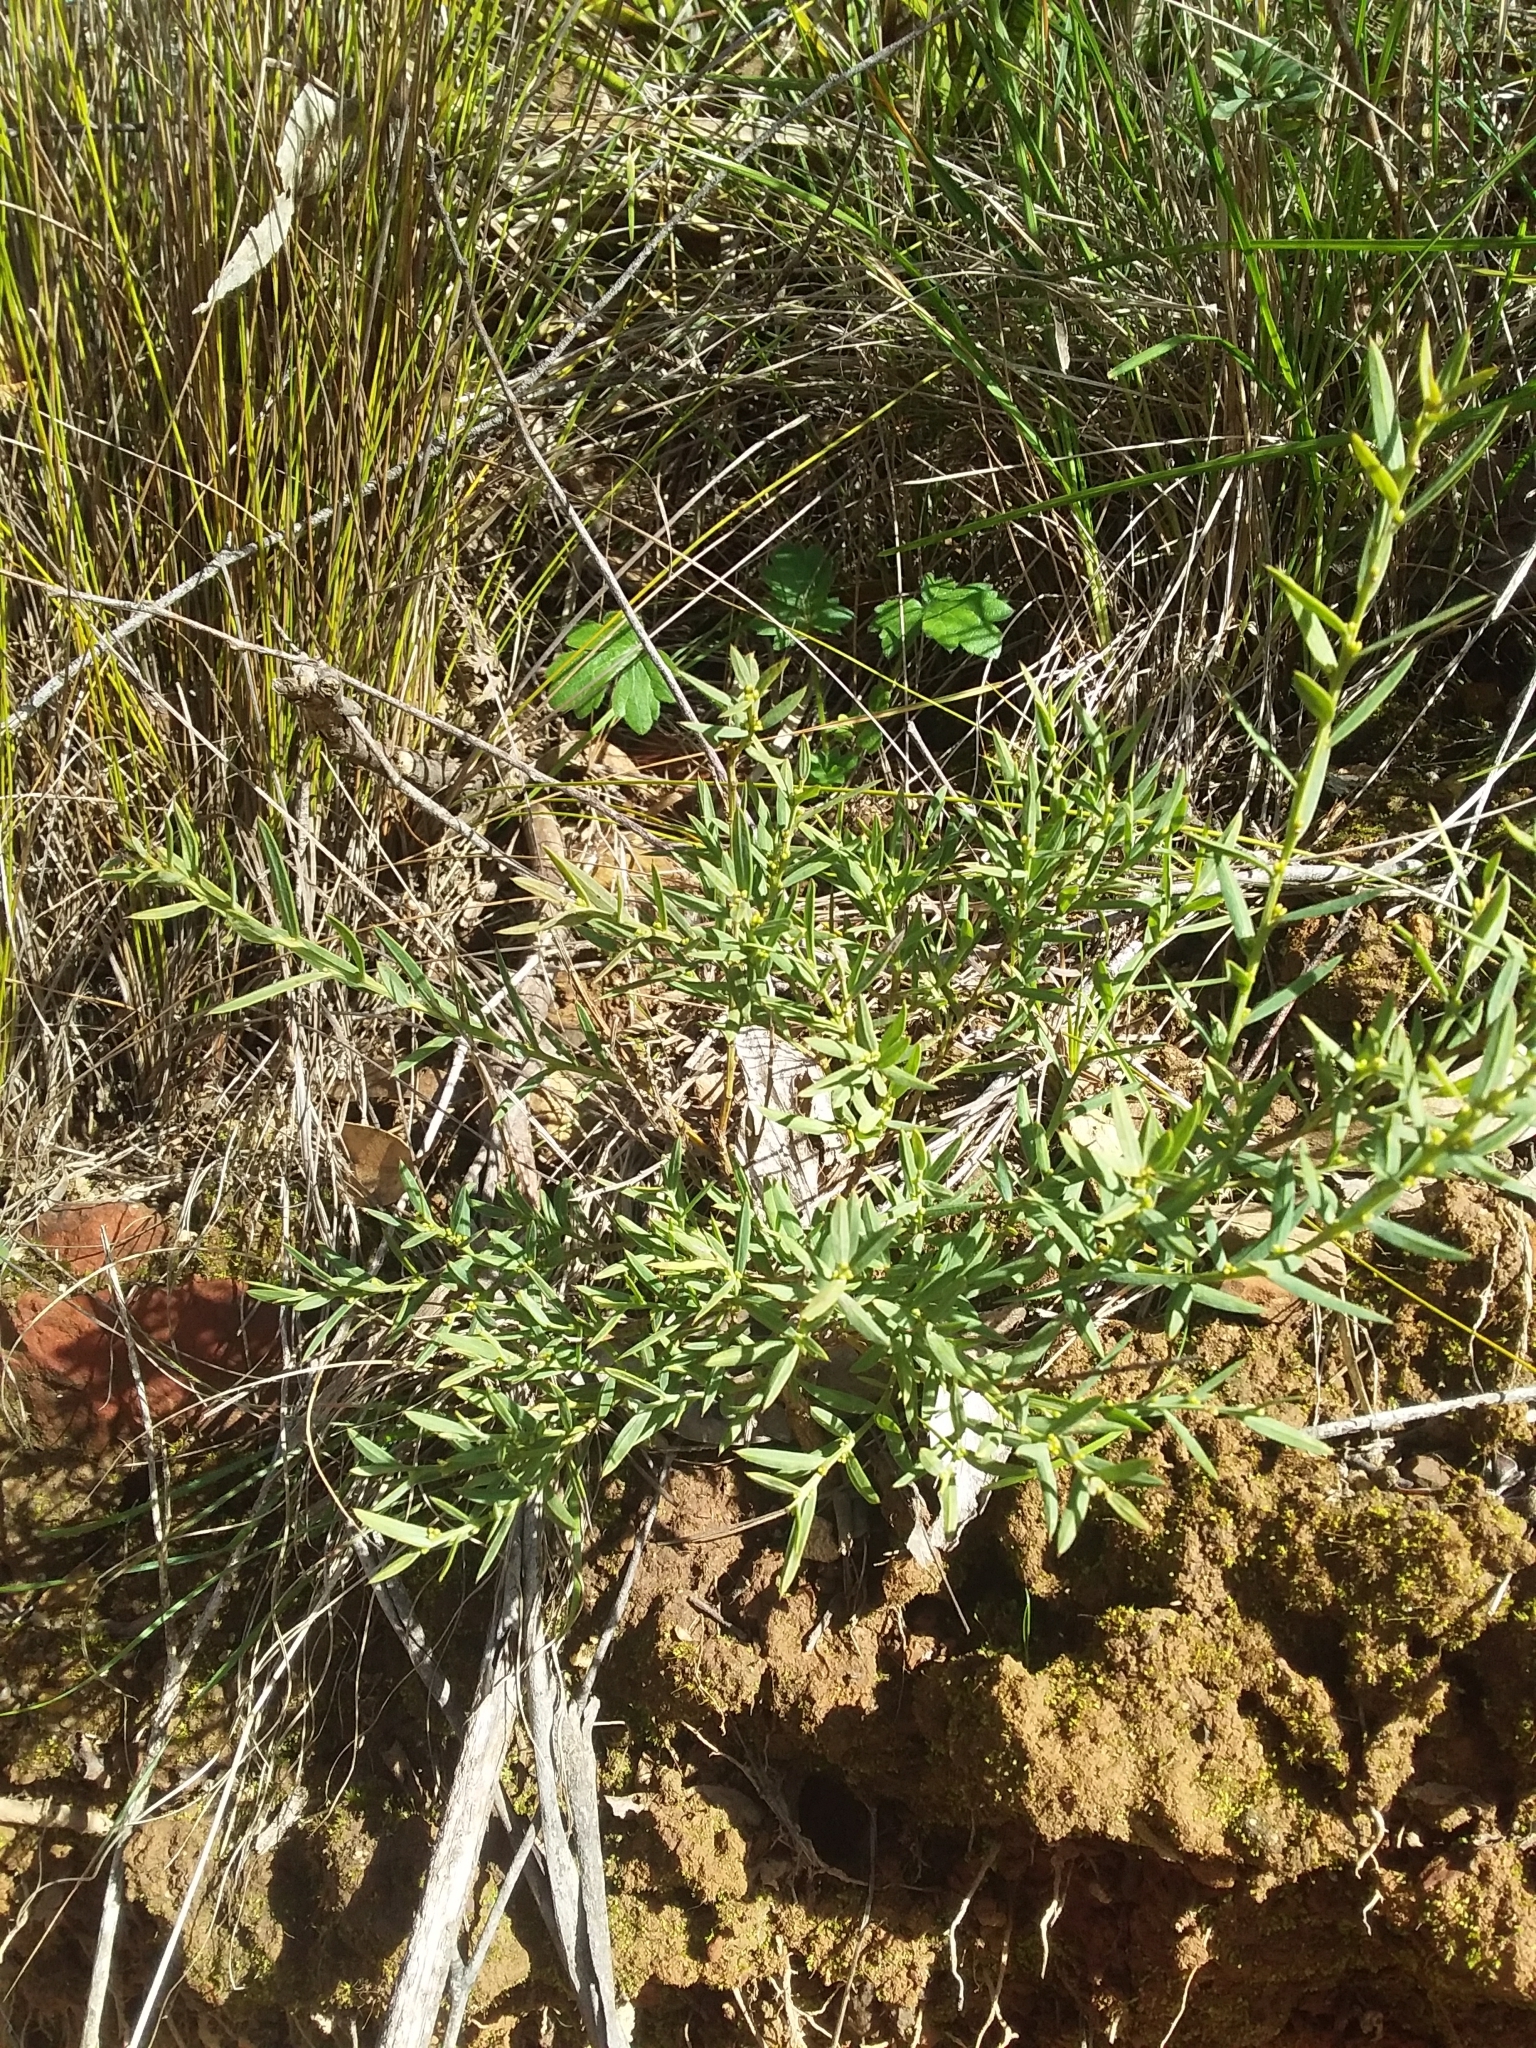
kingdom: Plantae
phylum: Tracheophyta
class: Magnoliopsida
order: Fabales
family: Fabaceae
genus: Daviesia
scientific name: Daviesia ulicifolia
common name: Gorse bitter-pea
